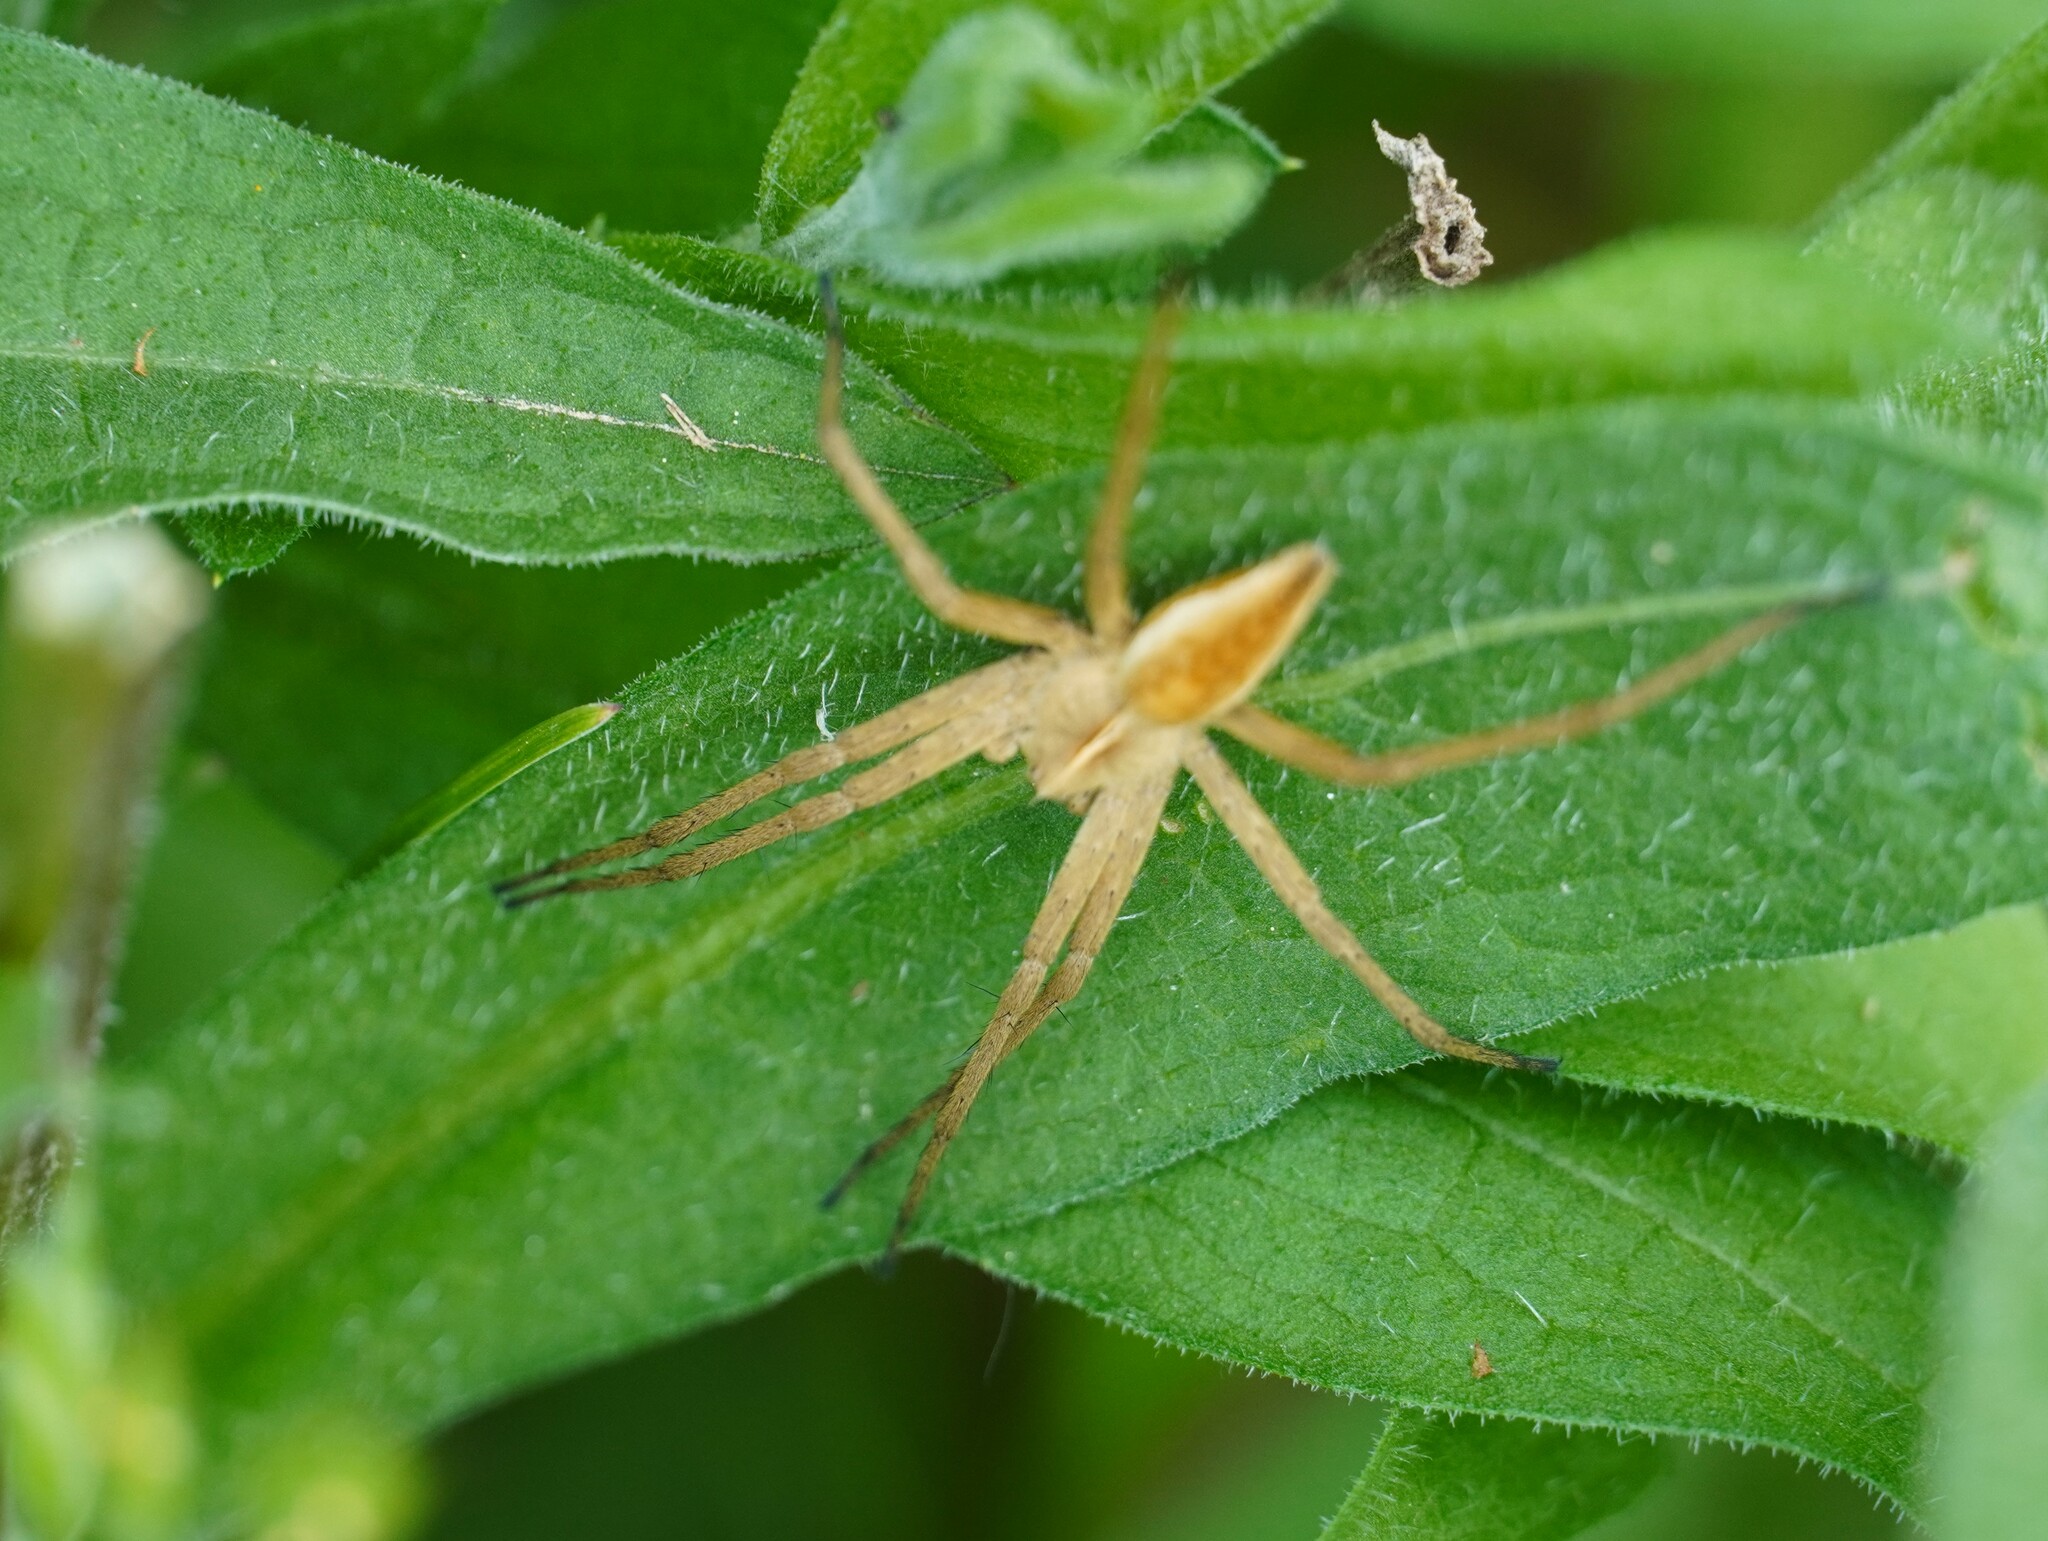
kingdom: Animalia
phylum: Arthropoda
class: Arachnida
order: Araneae
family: Pisauridae
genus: Pisaura
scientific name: Pisaura mirabilis
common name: Tent spider
